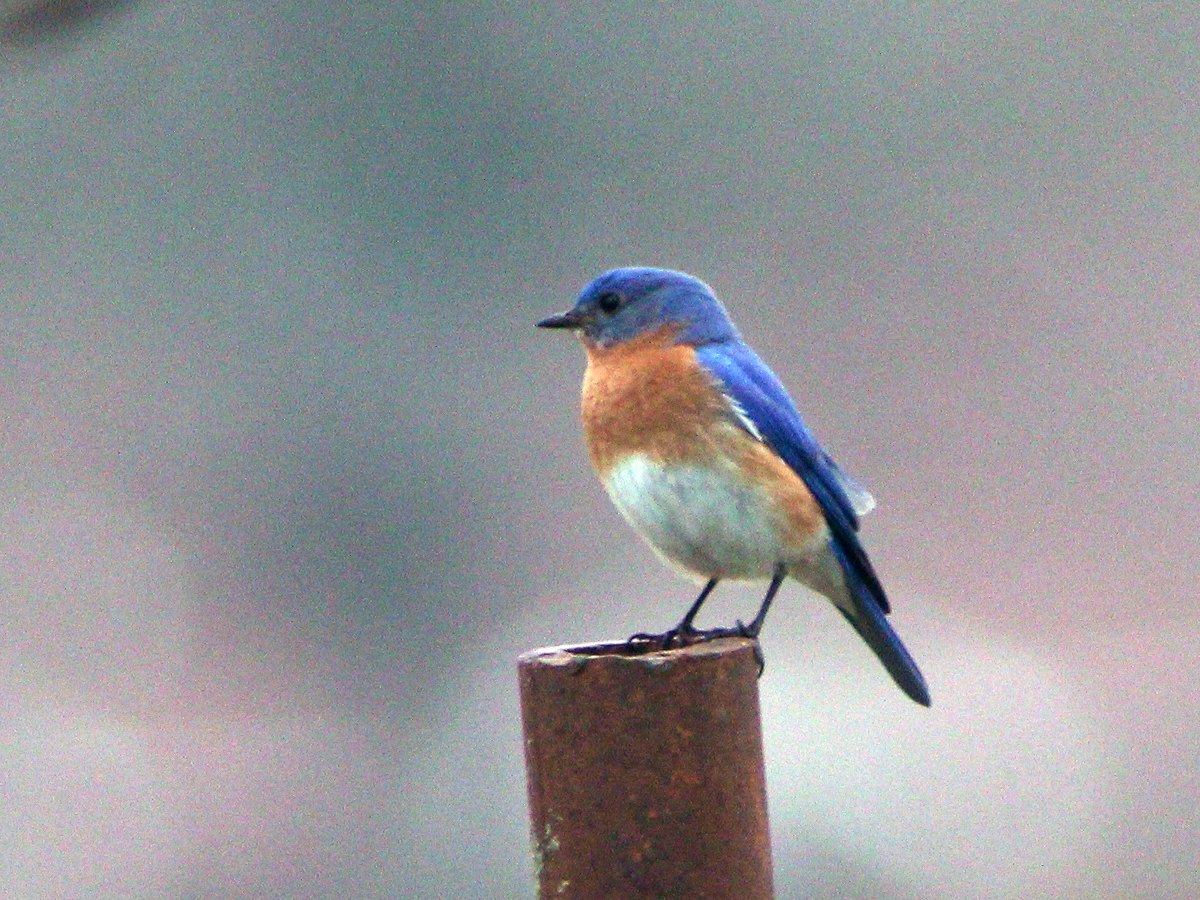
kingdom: Animalia
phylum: Chordata
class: Aves
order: Passeriformes
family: Turdidae
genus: Sialia
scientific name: Sialia sialis
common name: Eastern bluebird
